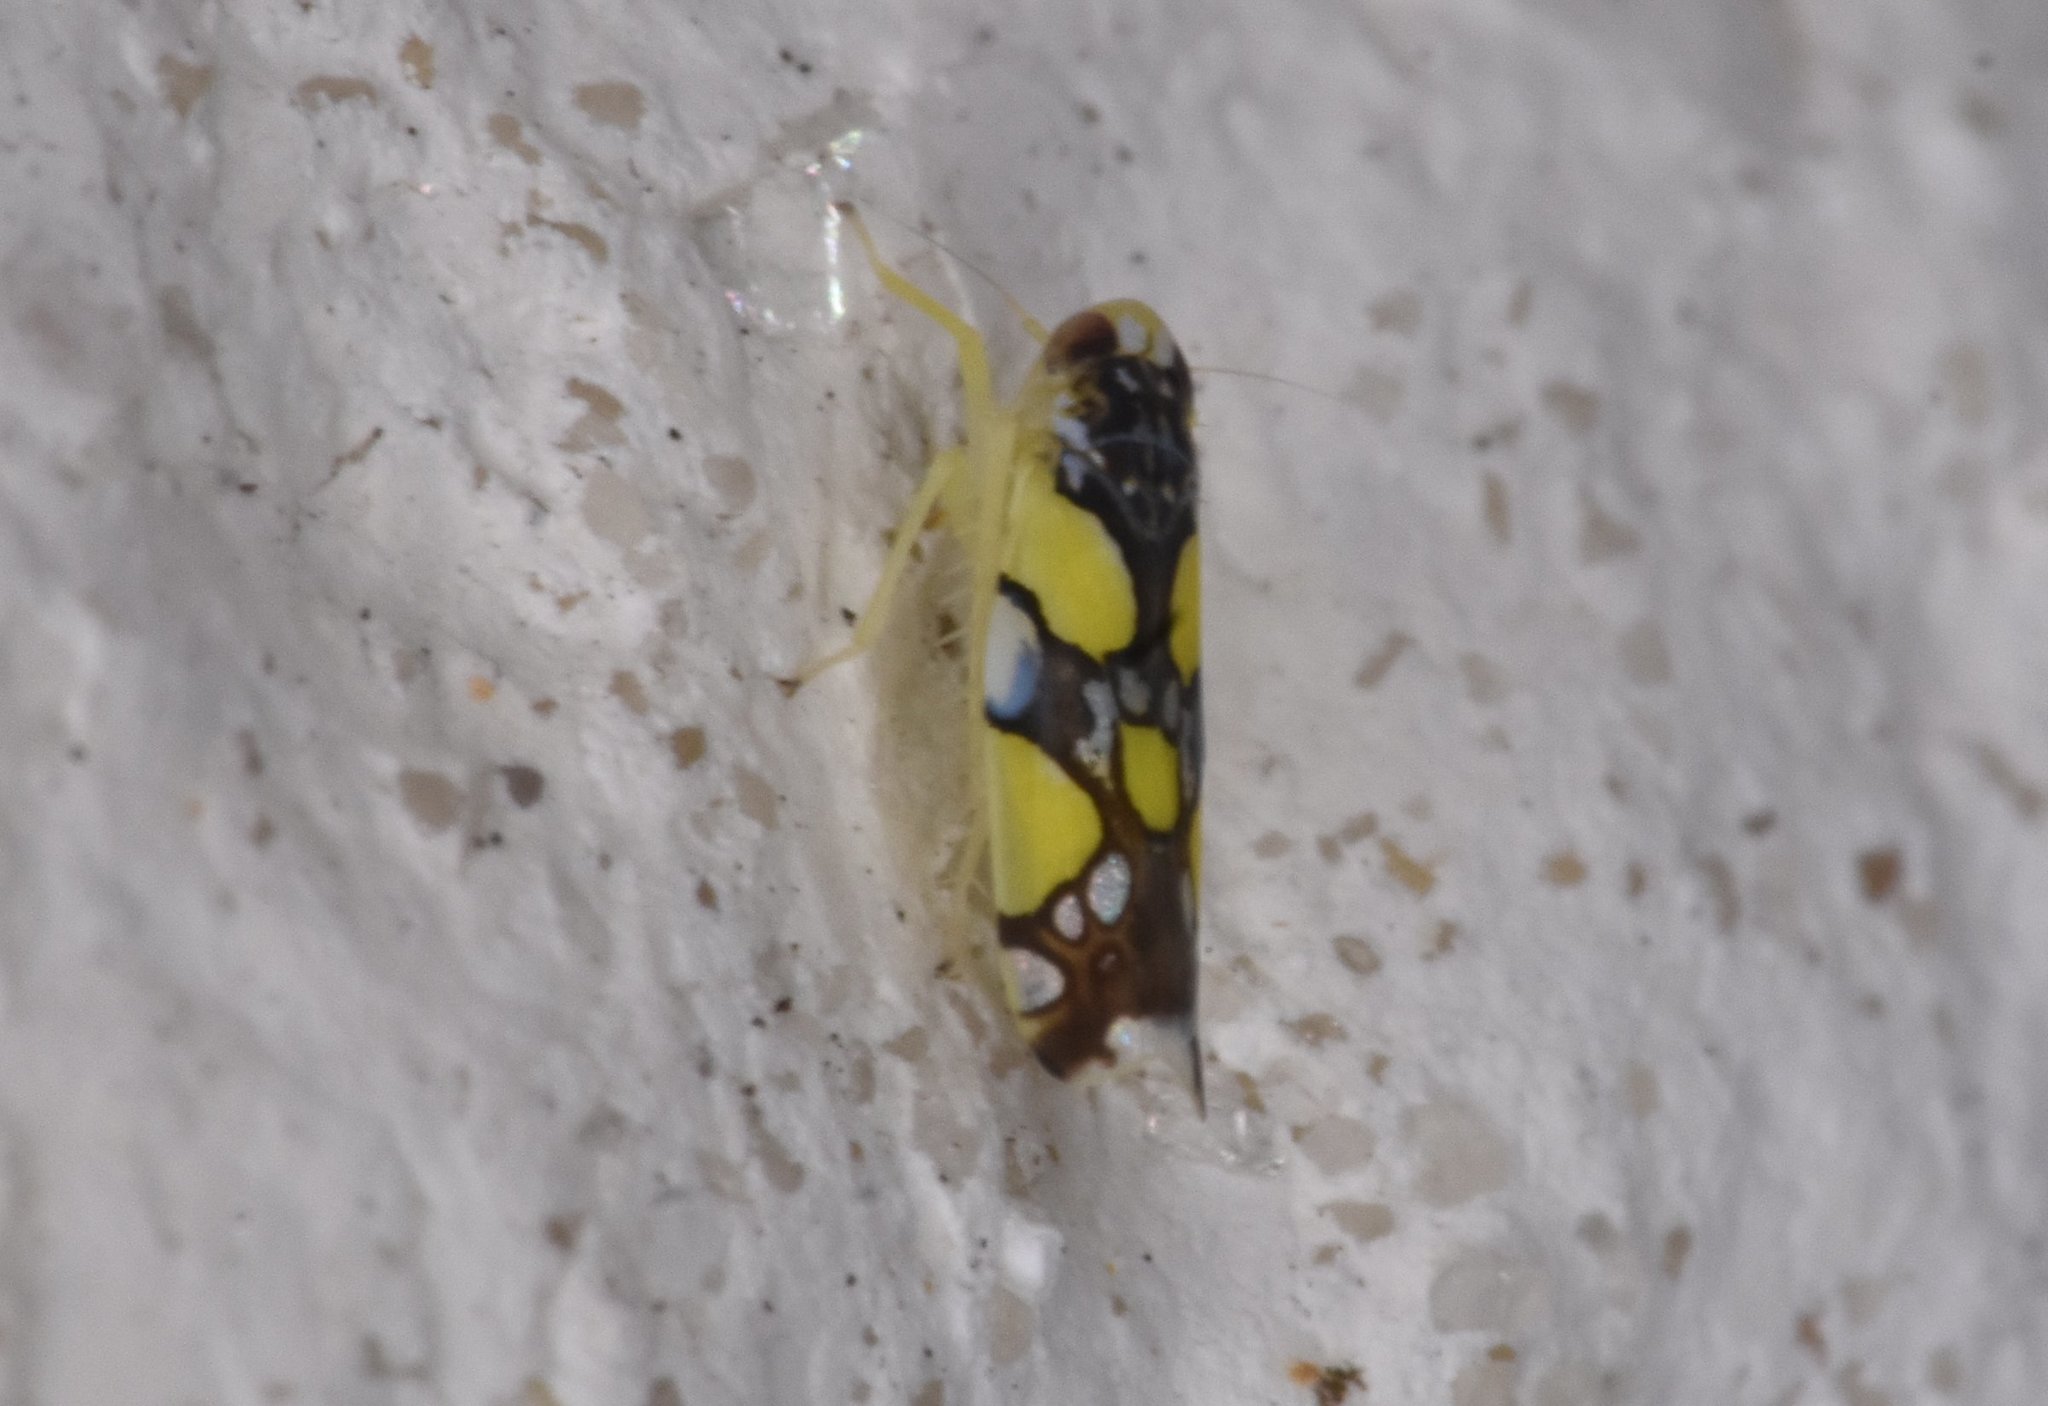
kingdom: Animalia
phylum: Arthropoda
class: Insecta
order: Hemiptera
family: Cicadellidae
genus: Protalebrella
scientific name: Protalebrella brasiliensis
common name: Brasilian leafhopper
